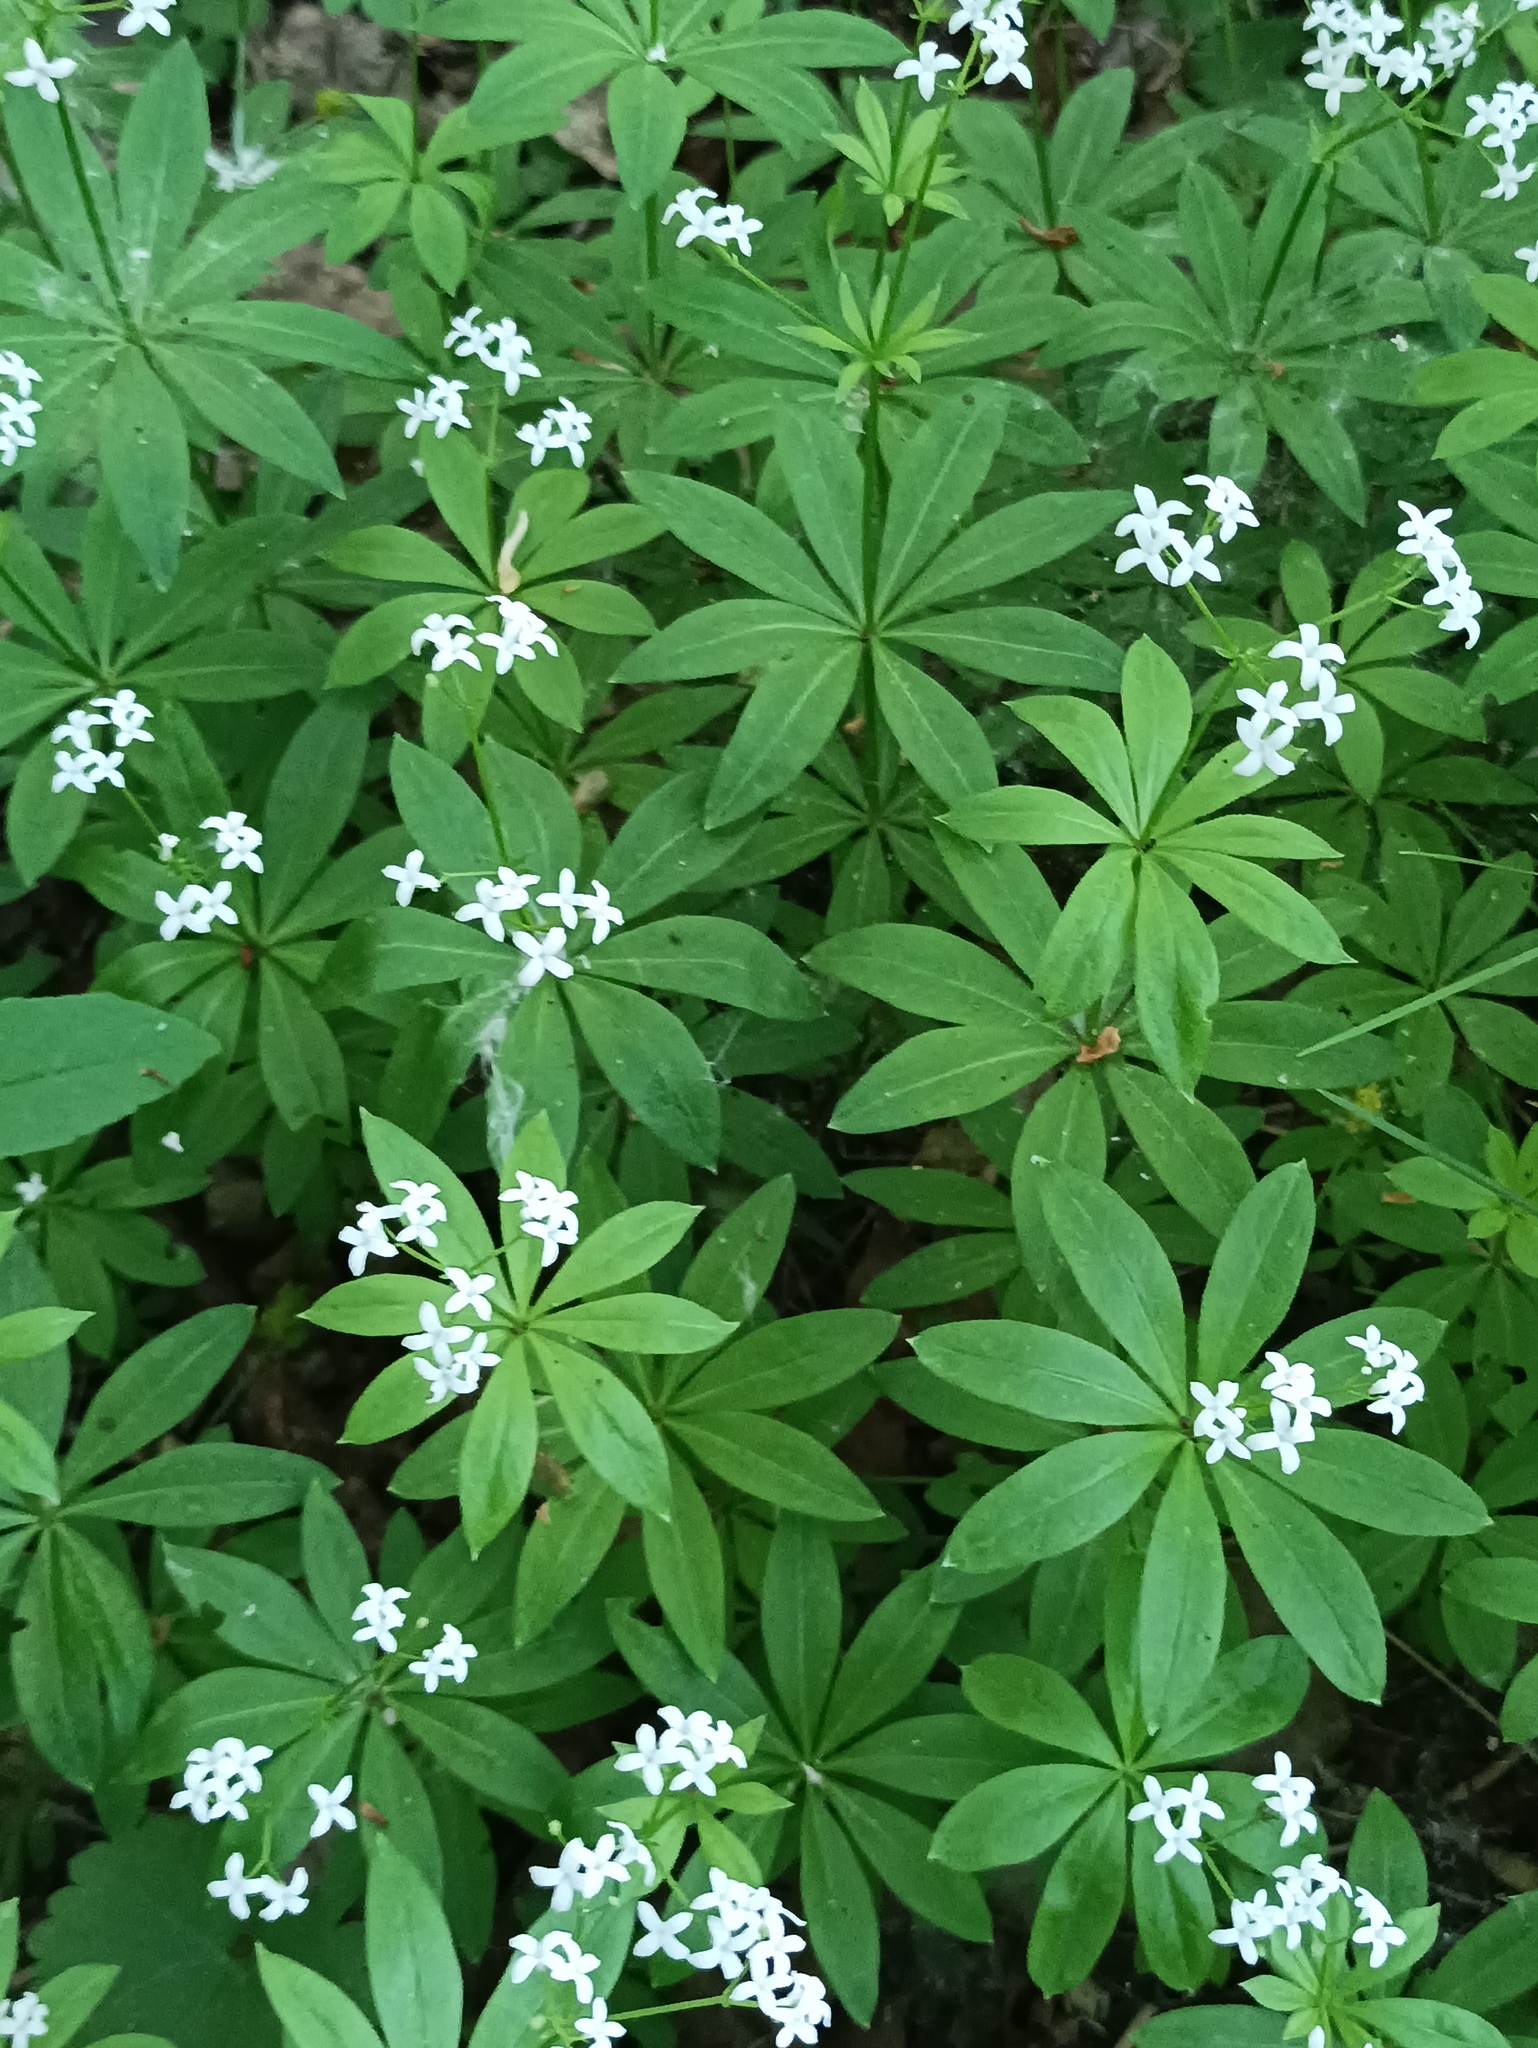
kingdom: Plantae
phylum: Tracheophyta
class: Magnoliopsida
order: Gentianales
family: Rubiaceae
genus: Galium
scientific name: Galium odoratum
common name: Sweet woodruff
